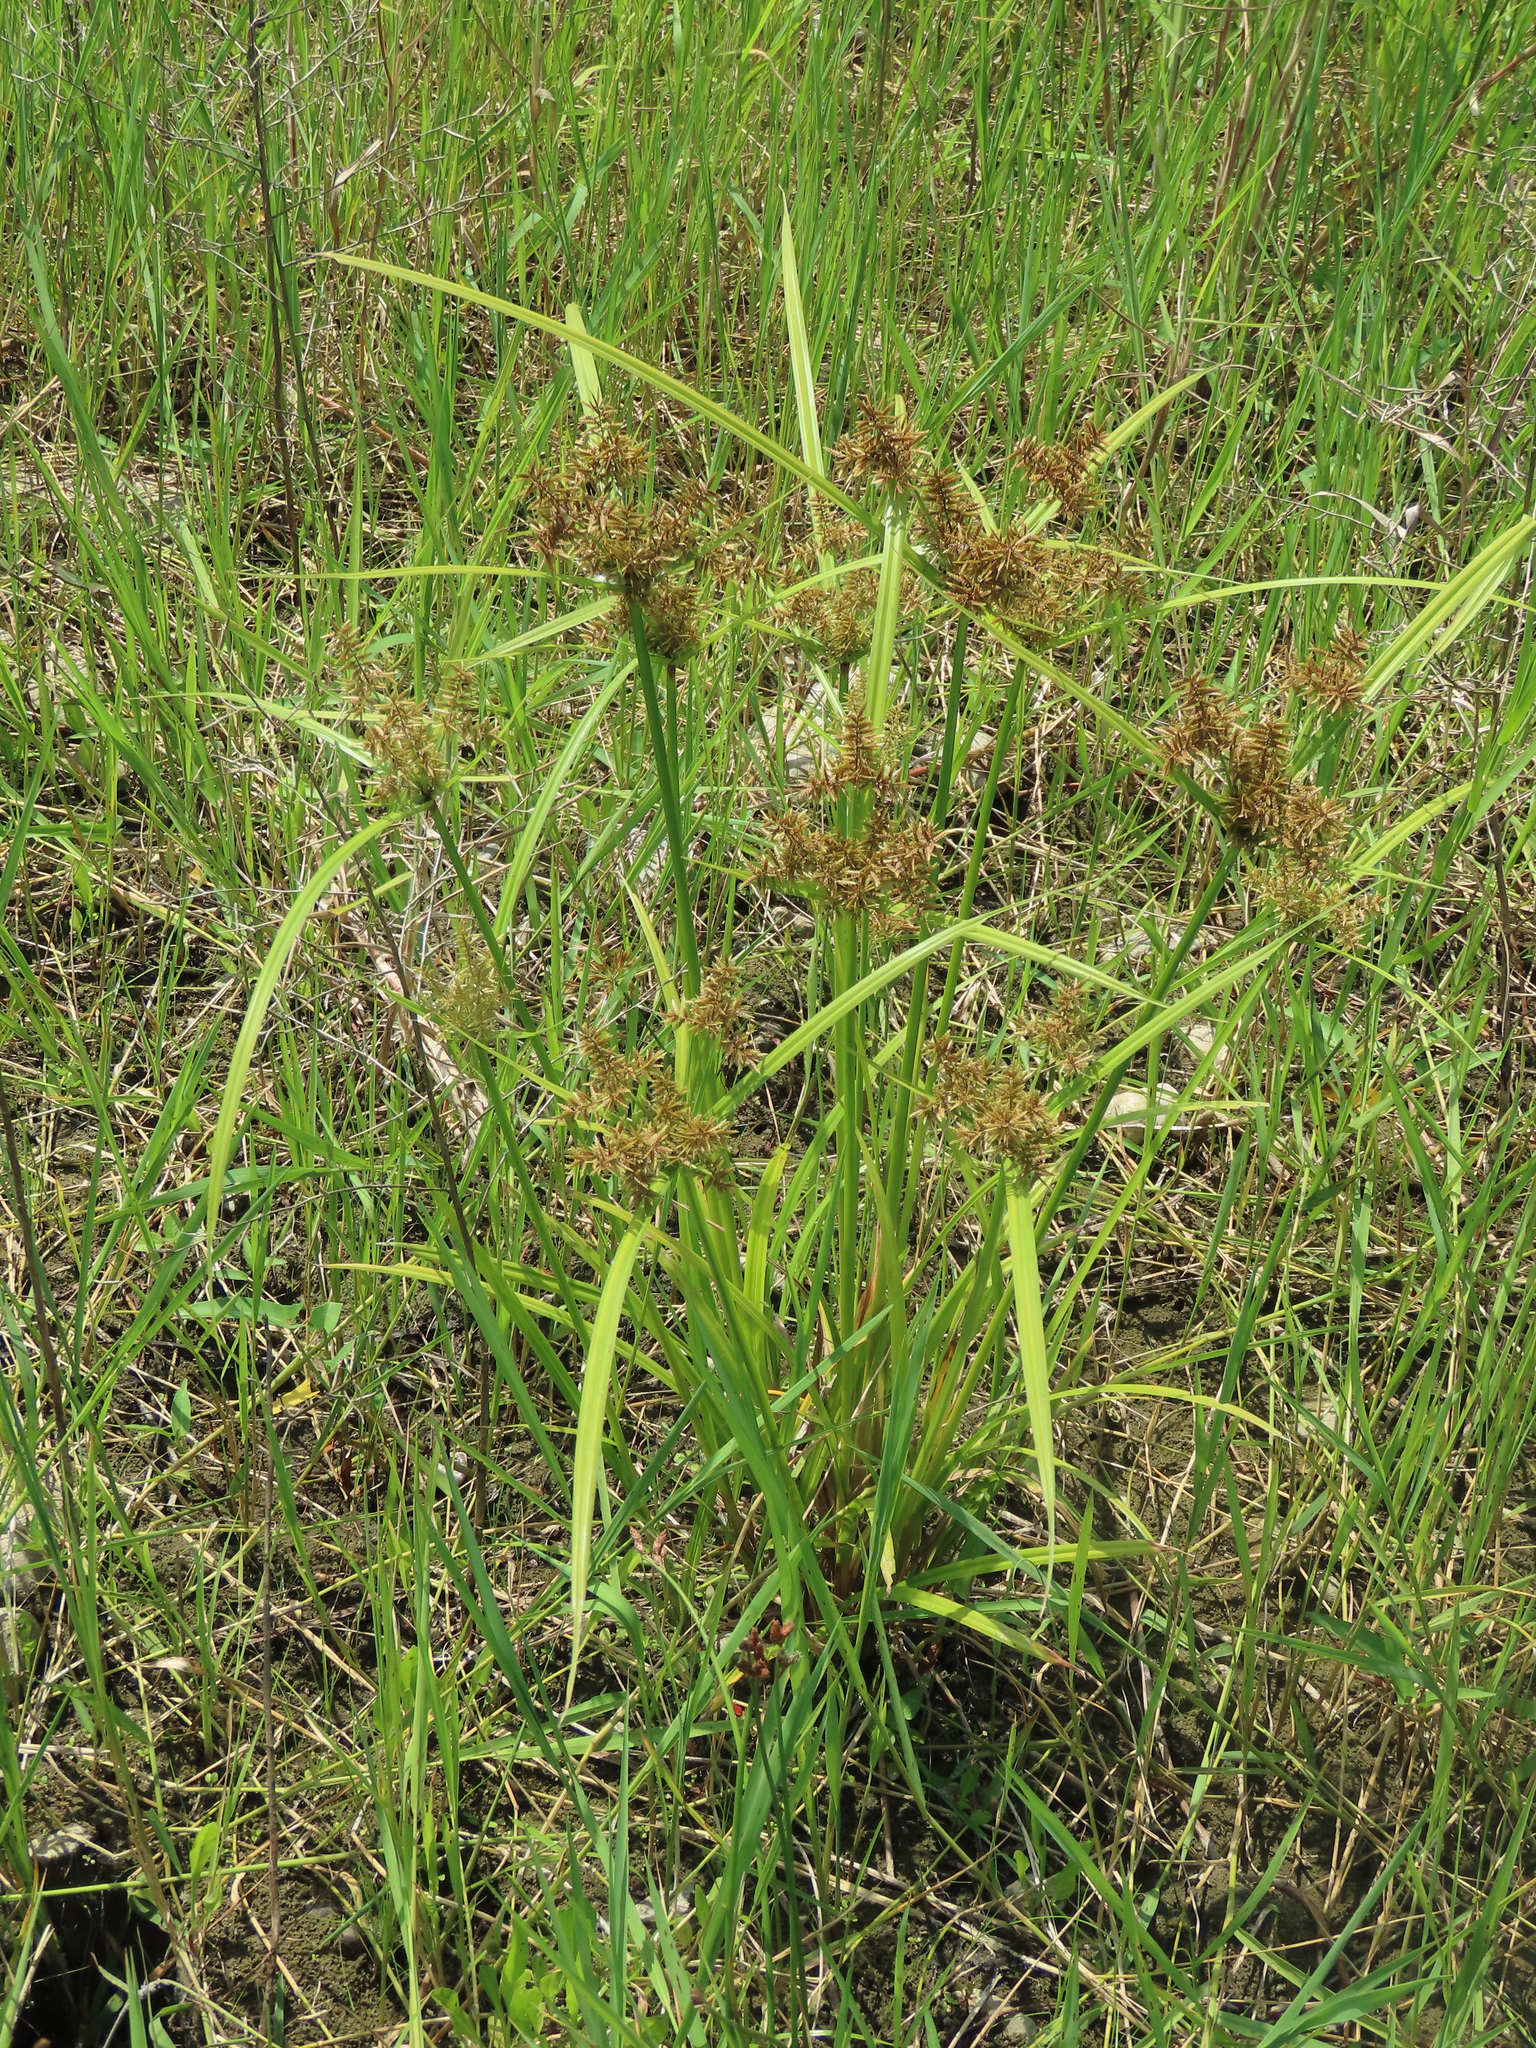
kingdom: Plantae
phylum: Tracheophyta
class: Liliopsida
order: Poales
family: Cyperaceae
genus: Cyperus
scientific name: Cyperus pilosus
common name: Fuzzy flatsedge
